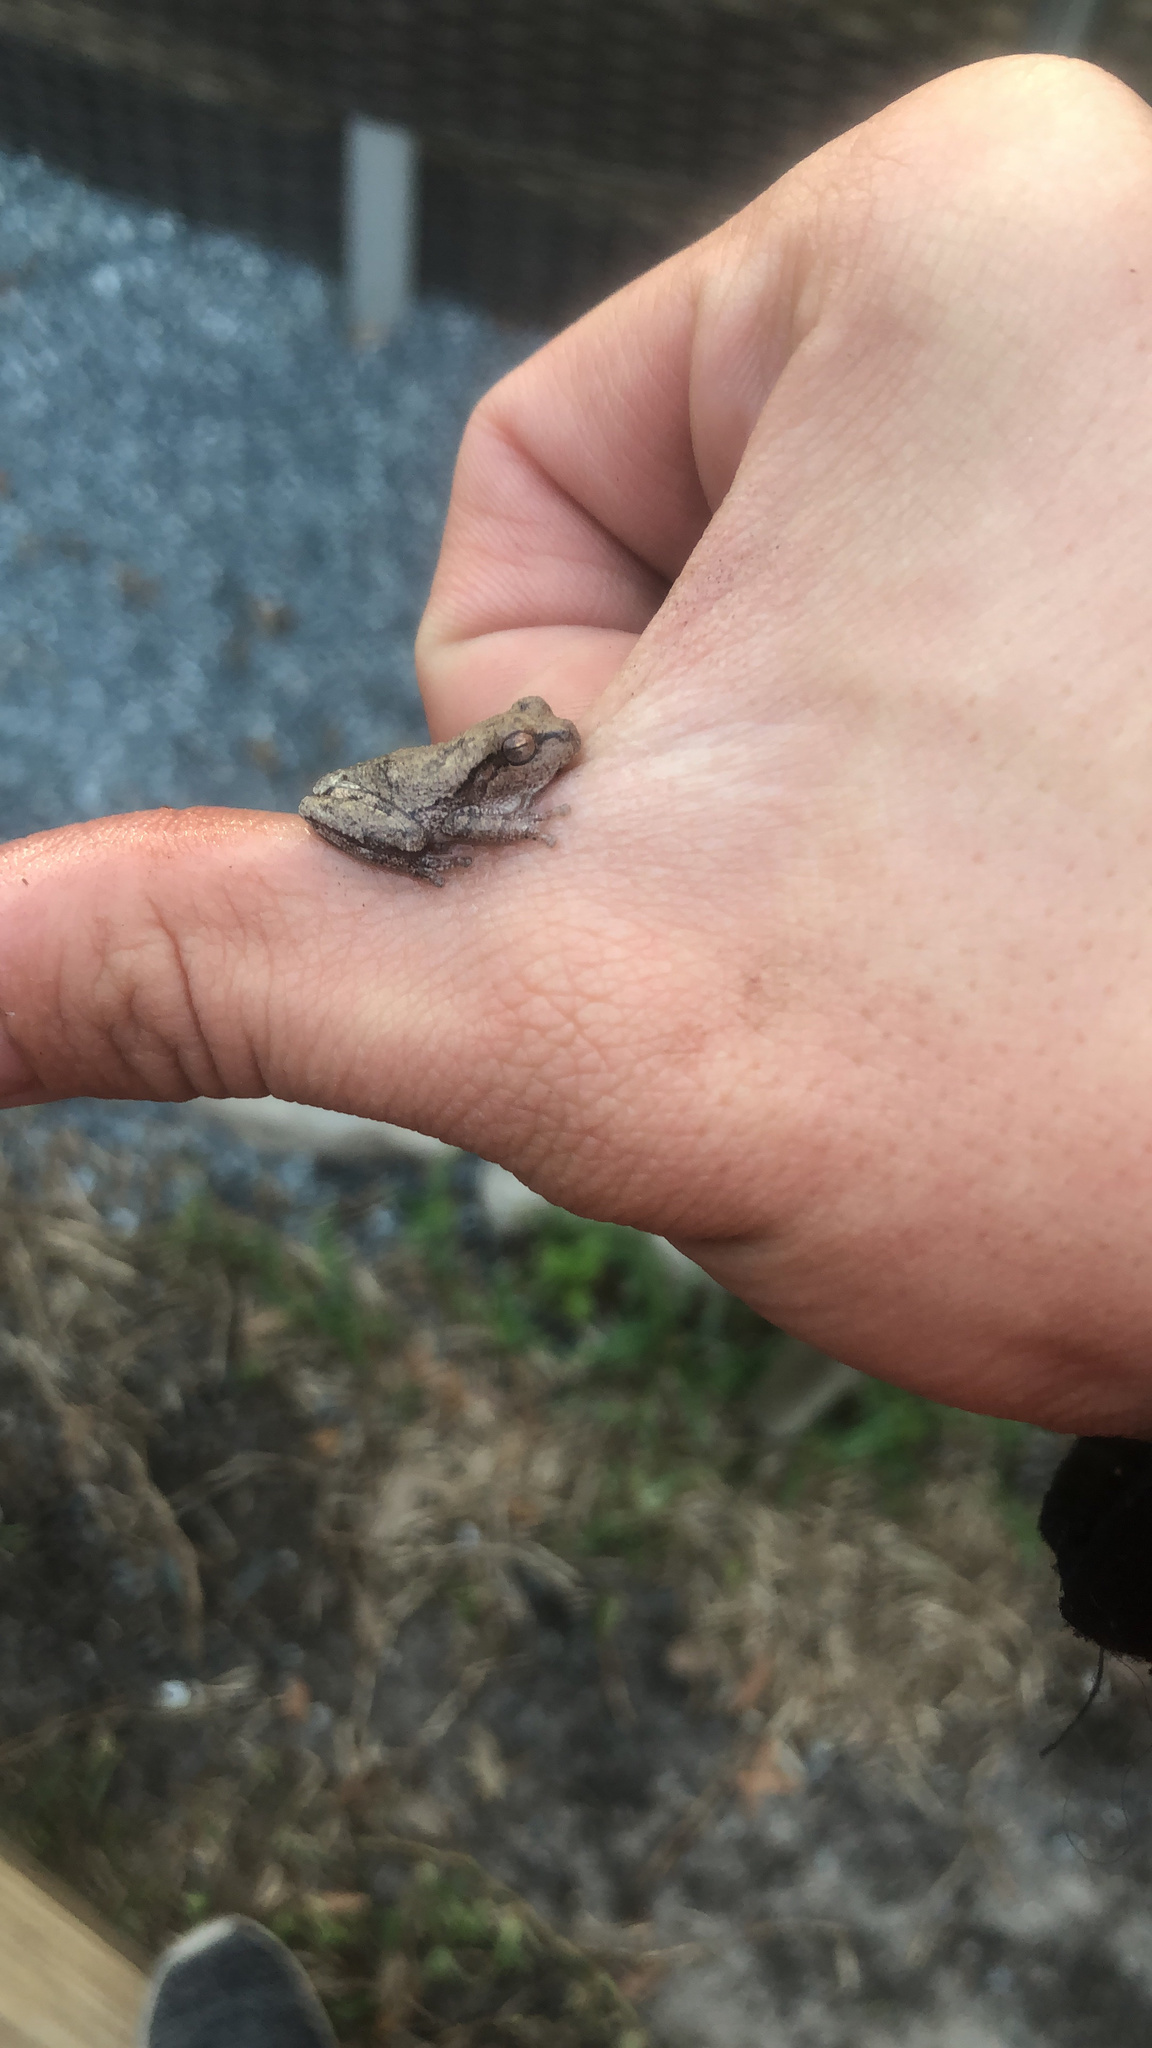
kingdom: Animalia
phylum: Chordata
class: Amphibia
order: Anura
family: Hylidae
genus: Hyla
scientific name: Hyla femoralis
